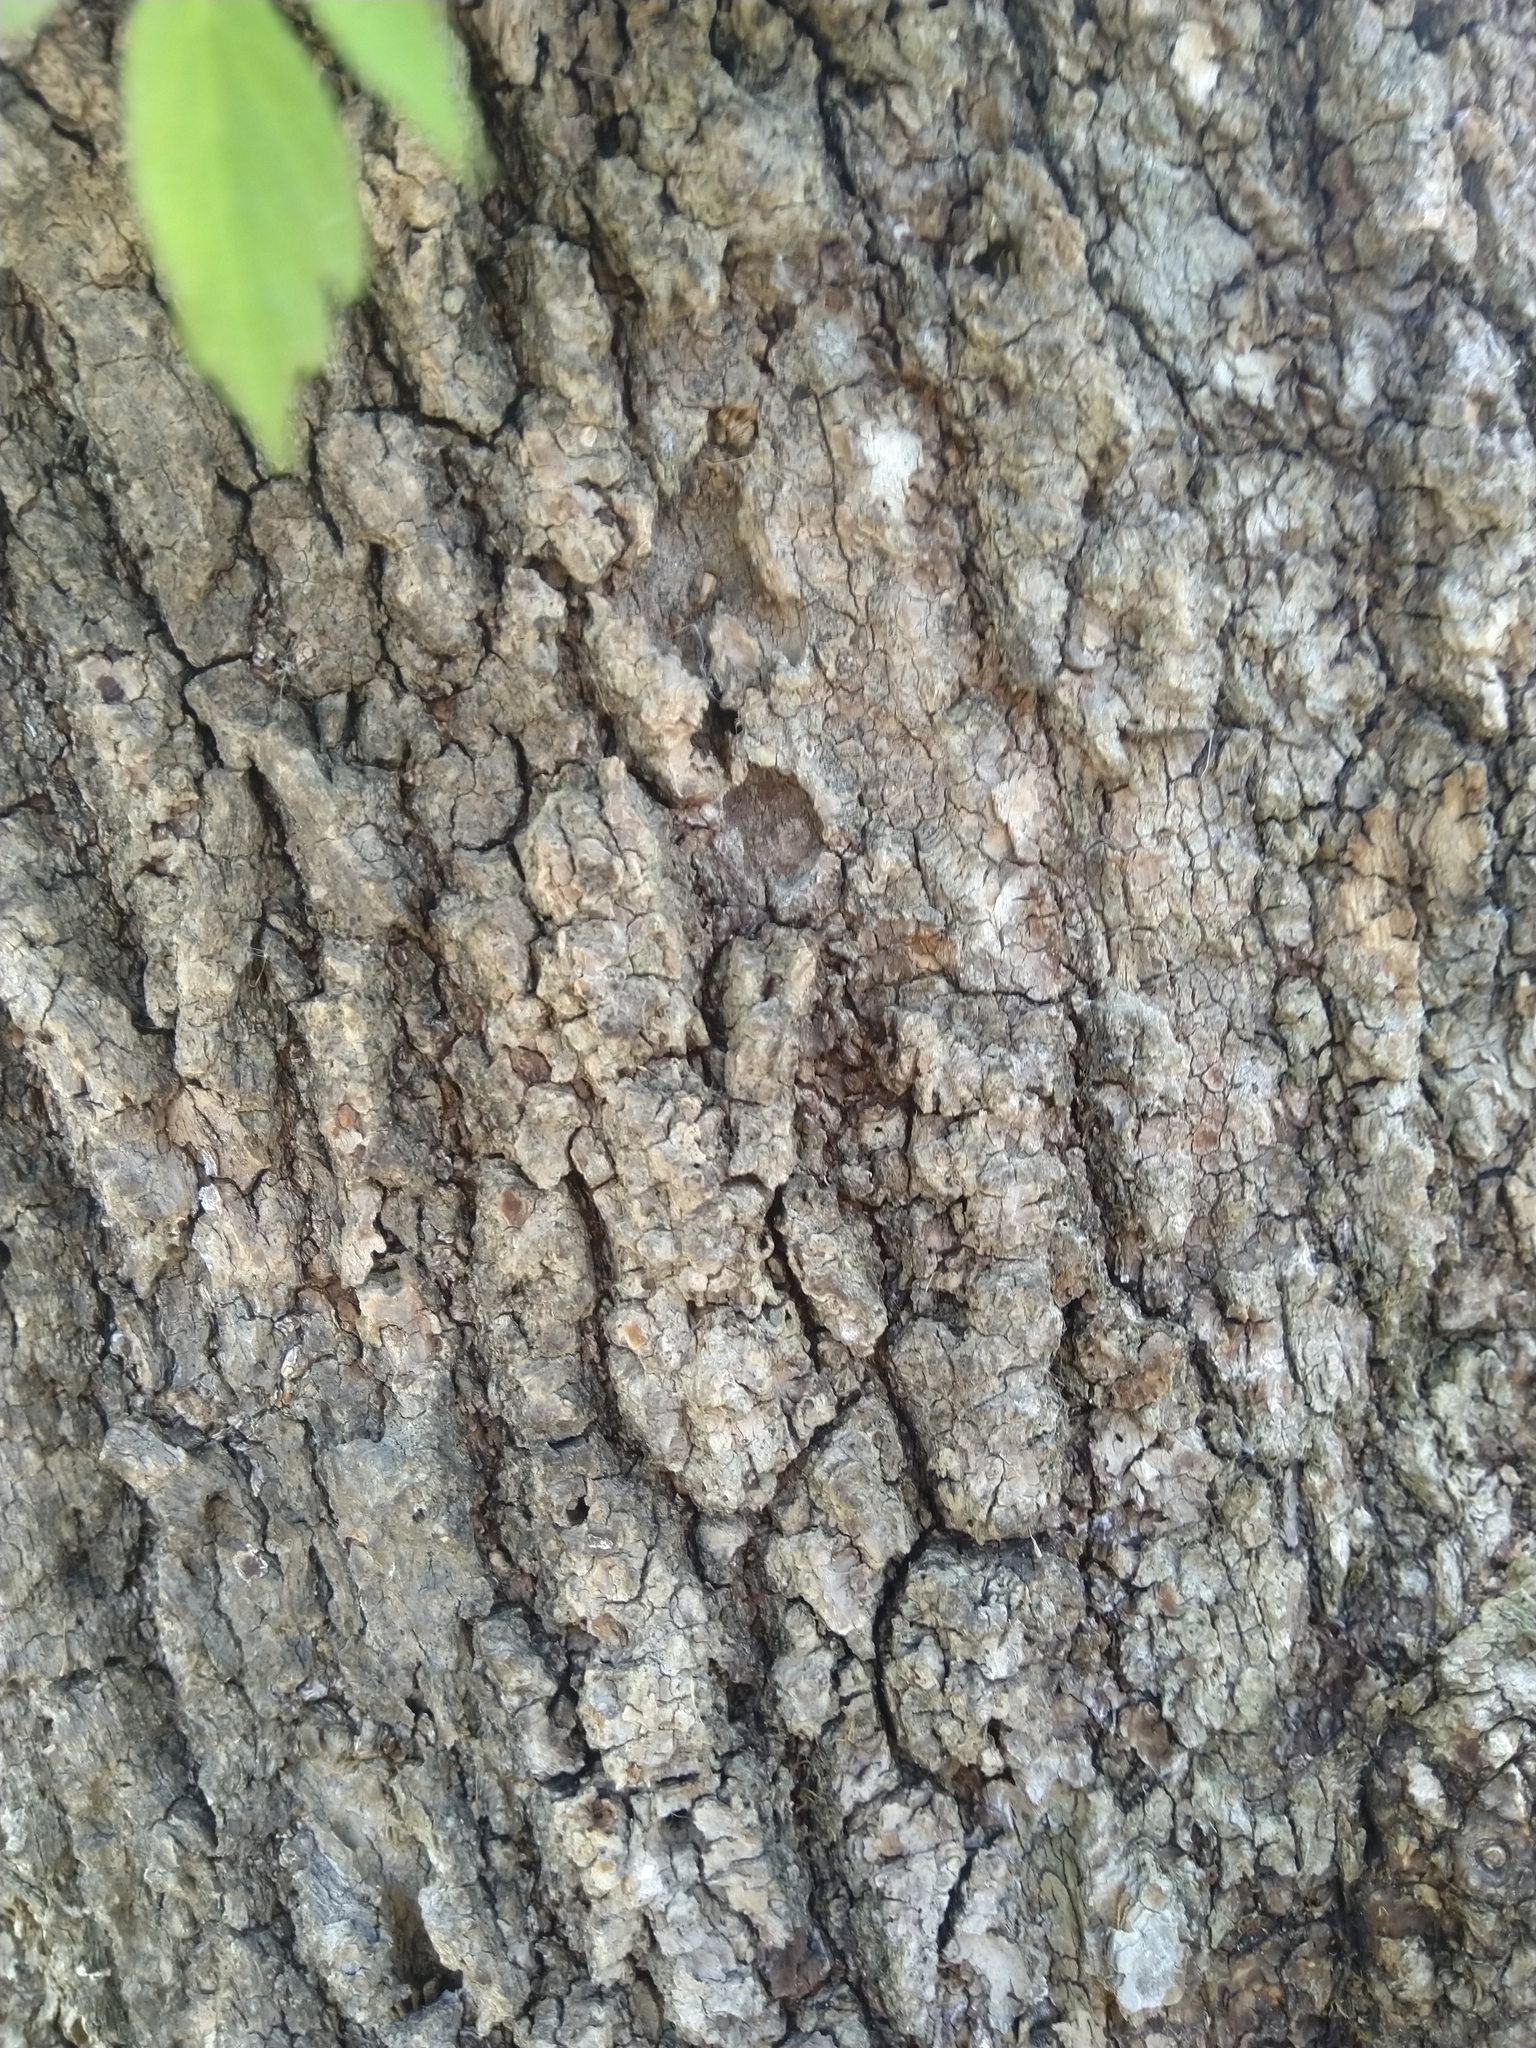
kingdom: Plantae
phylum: Tracheophyta
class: Magnoliopsida
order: Sapindales
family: Sapindaceae
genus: Acer
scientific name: Acer negundo
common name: Ashleaf maple
